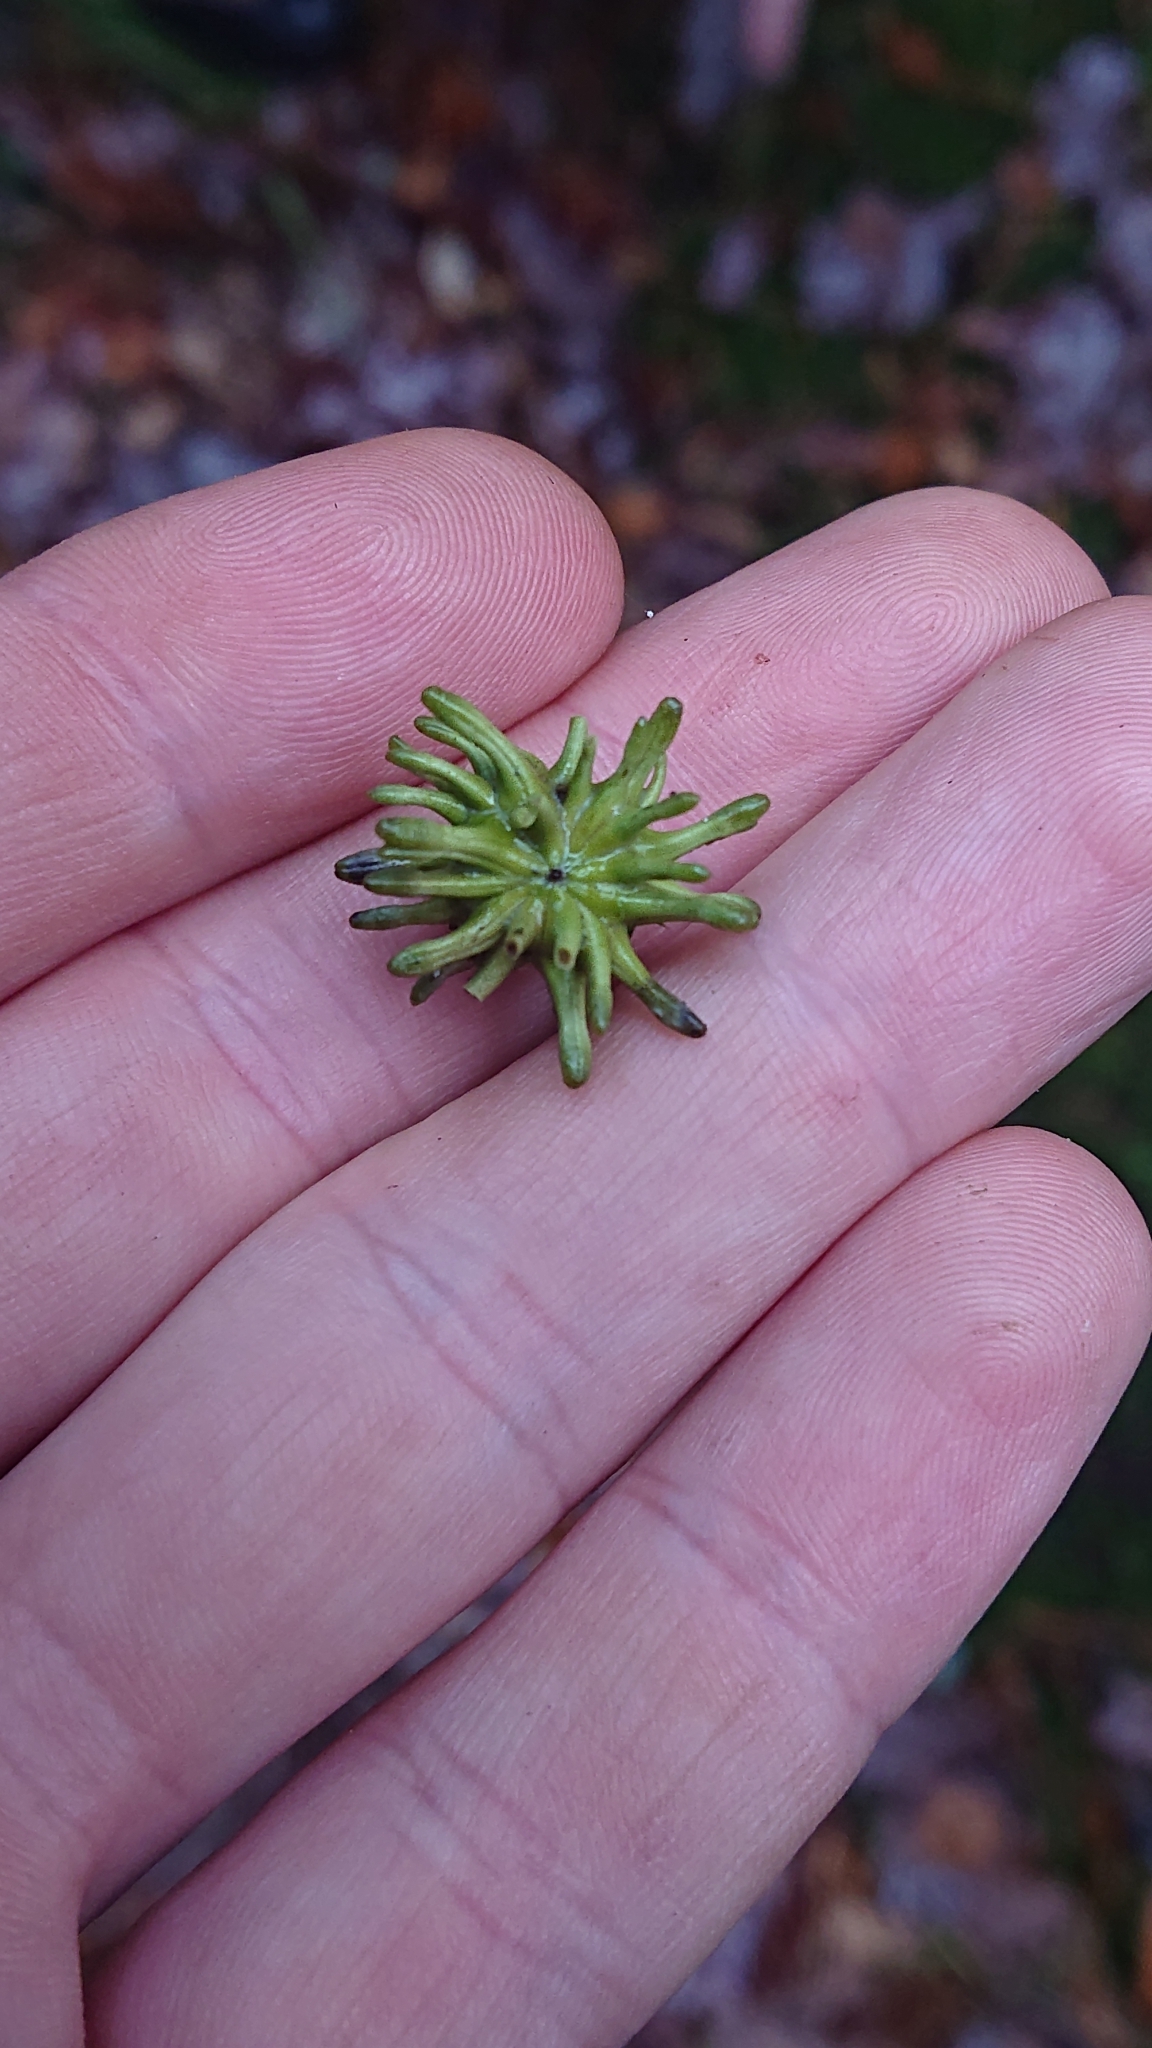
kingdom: Animalia
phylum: Arthropoda
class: Insecta
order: Hymenoptera
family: Cynipidae
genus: Andricus
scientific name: Andricus grossulariae
